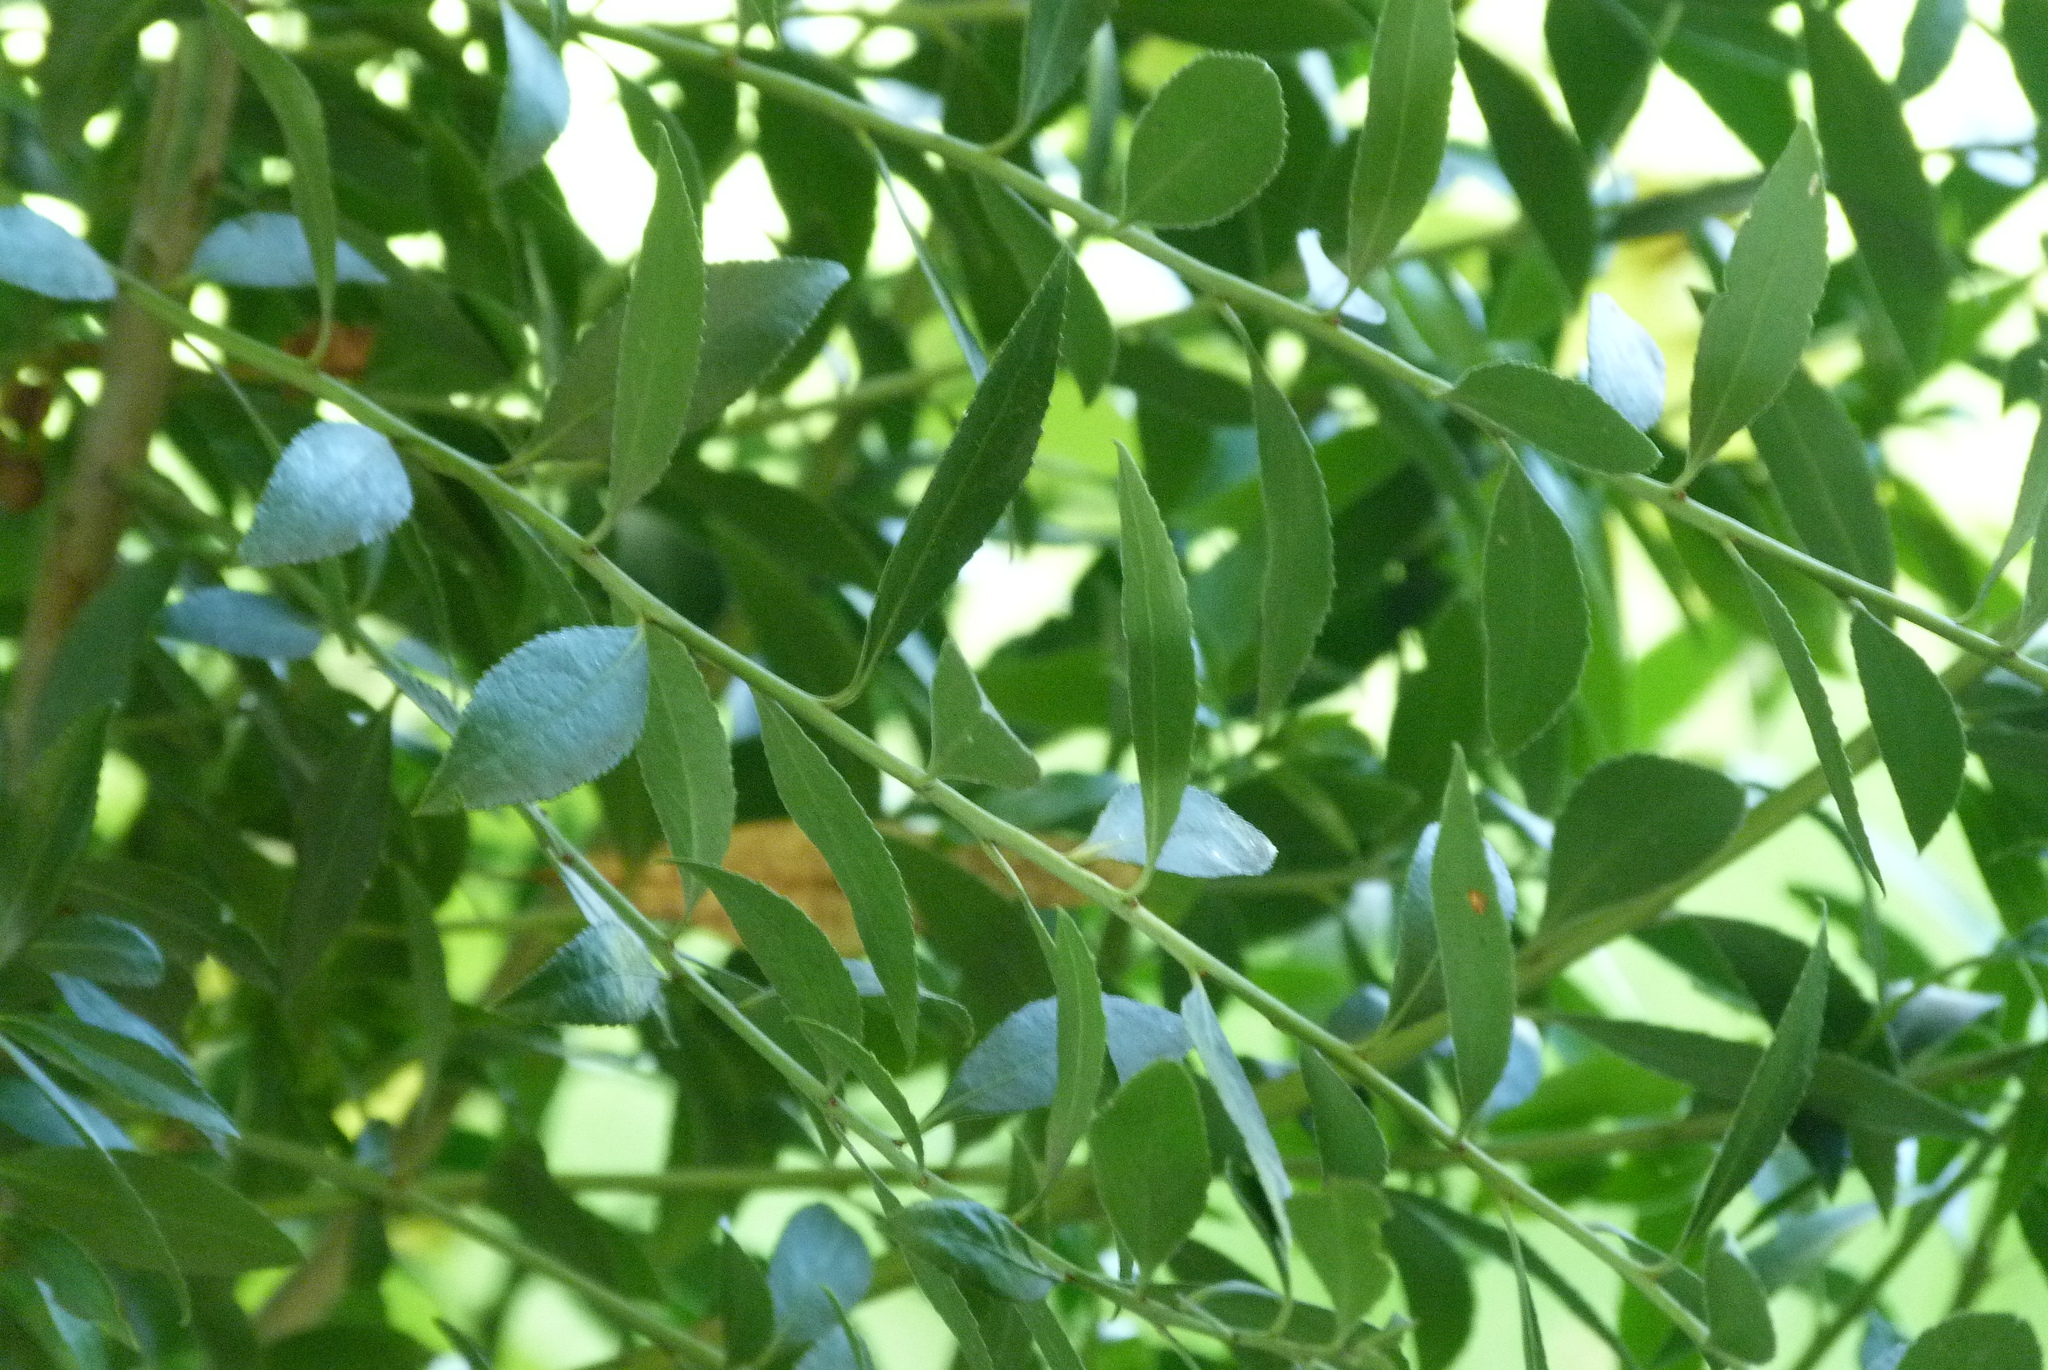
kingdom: Plantae
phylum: Tracheophyta
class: Magnoliopsida
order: Celastrales
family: Celastraceae
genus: Maytenus
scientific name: Maytenus boaria
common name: Mayten
